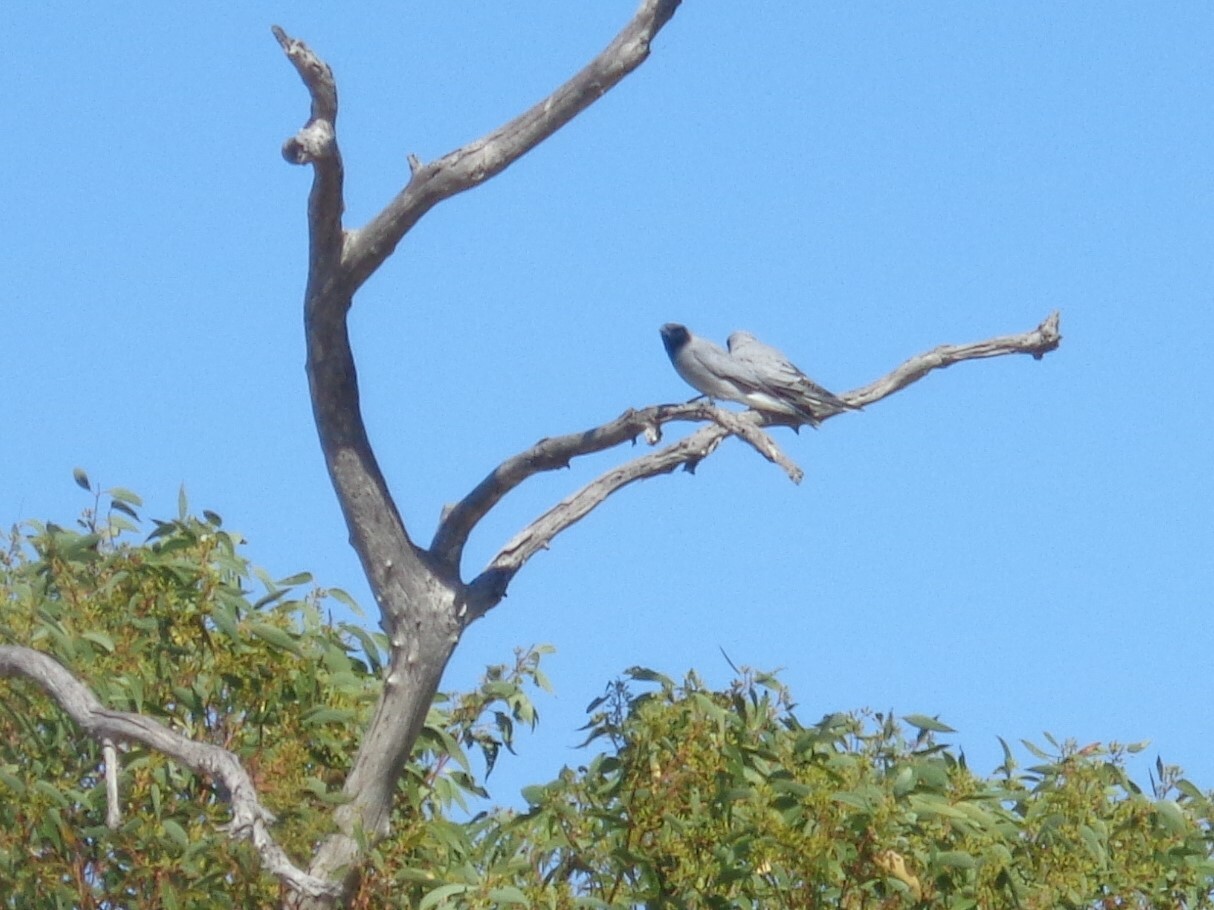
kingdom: Animalia
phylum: Chordata
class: Aves
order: Passeriformes
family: Campephagidae
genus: Coracina
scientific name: Coracina novaehollandiae
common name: Black-faced cuckooshrike
